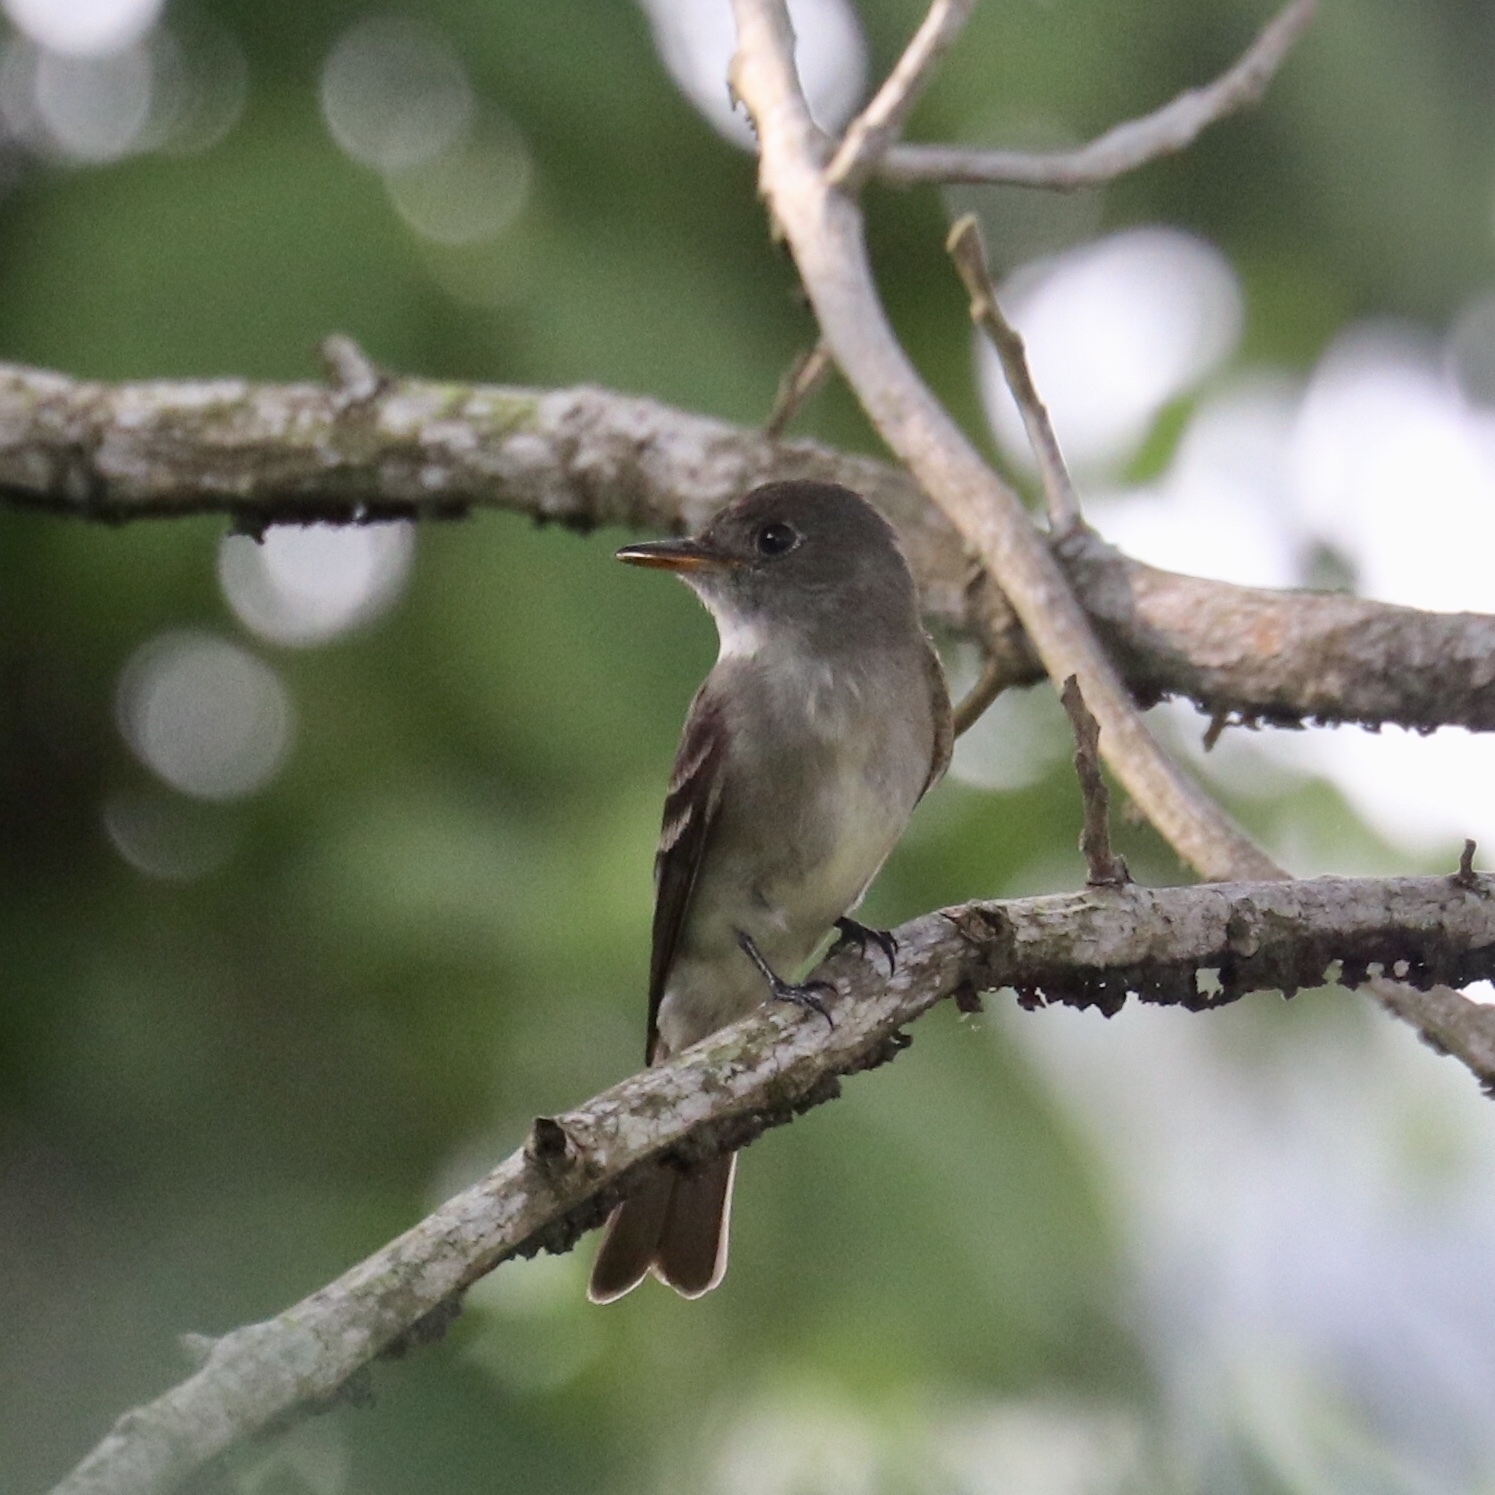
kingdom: Animalia
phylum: Chordata
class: Aves
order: Passeriformes
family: Tyrannidae
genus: Contopus
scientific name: Contopus virens
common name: Eastern wood-pewee
